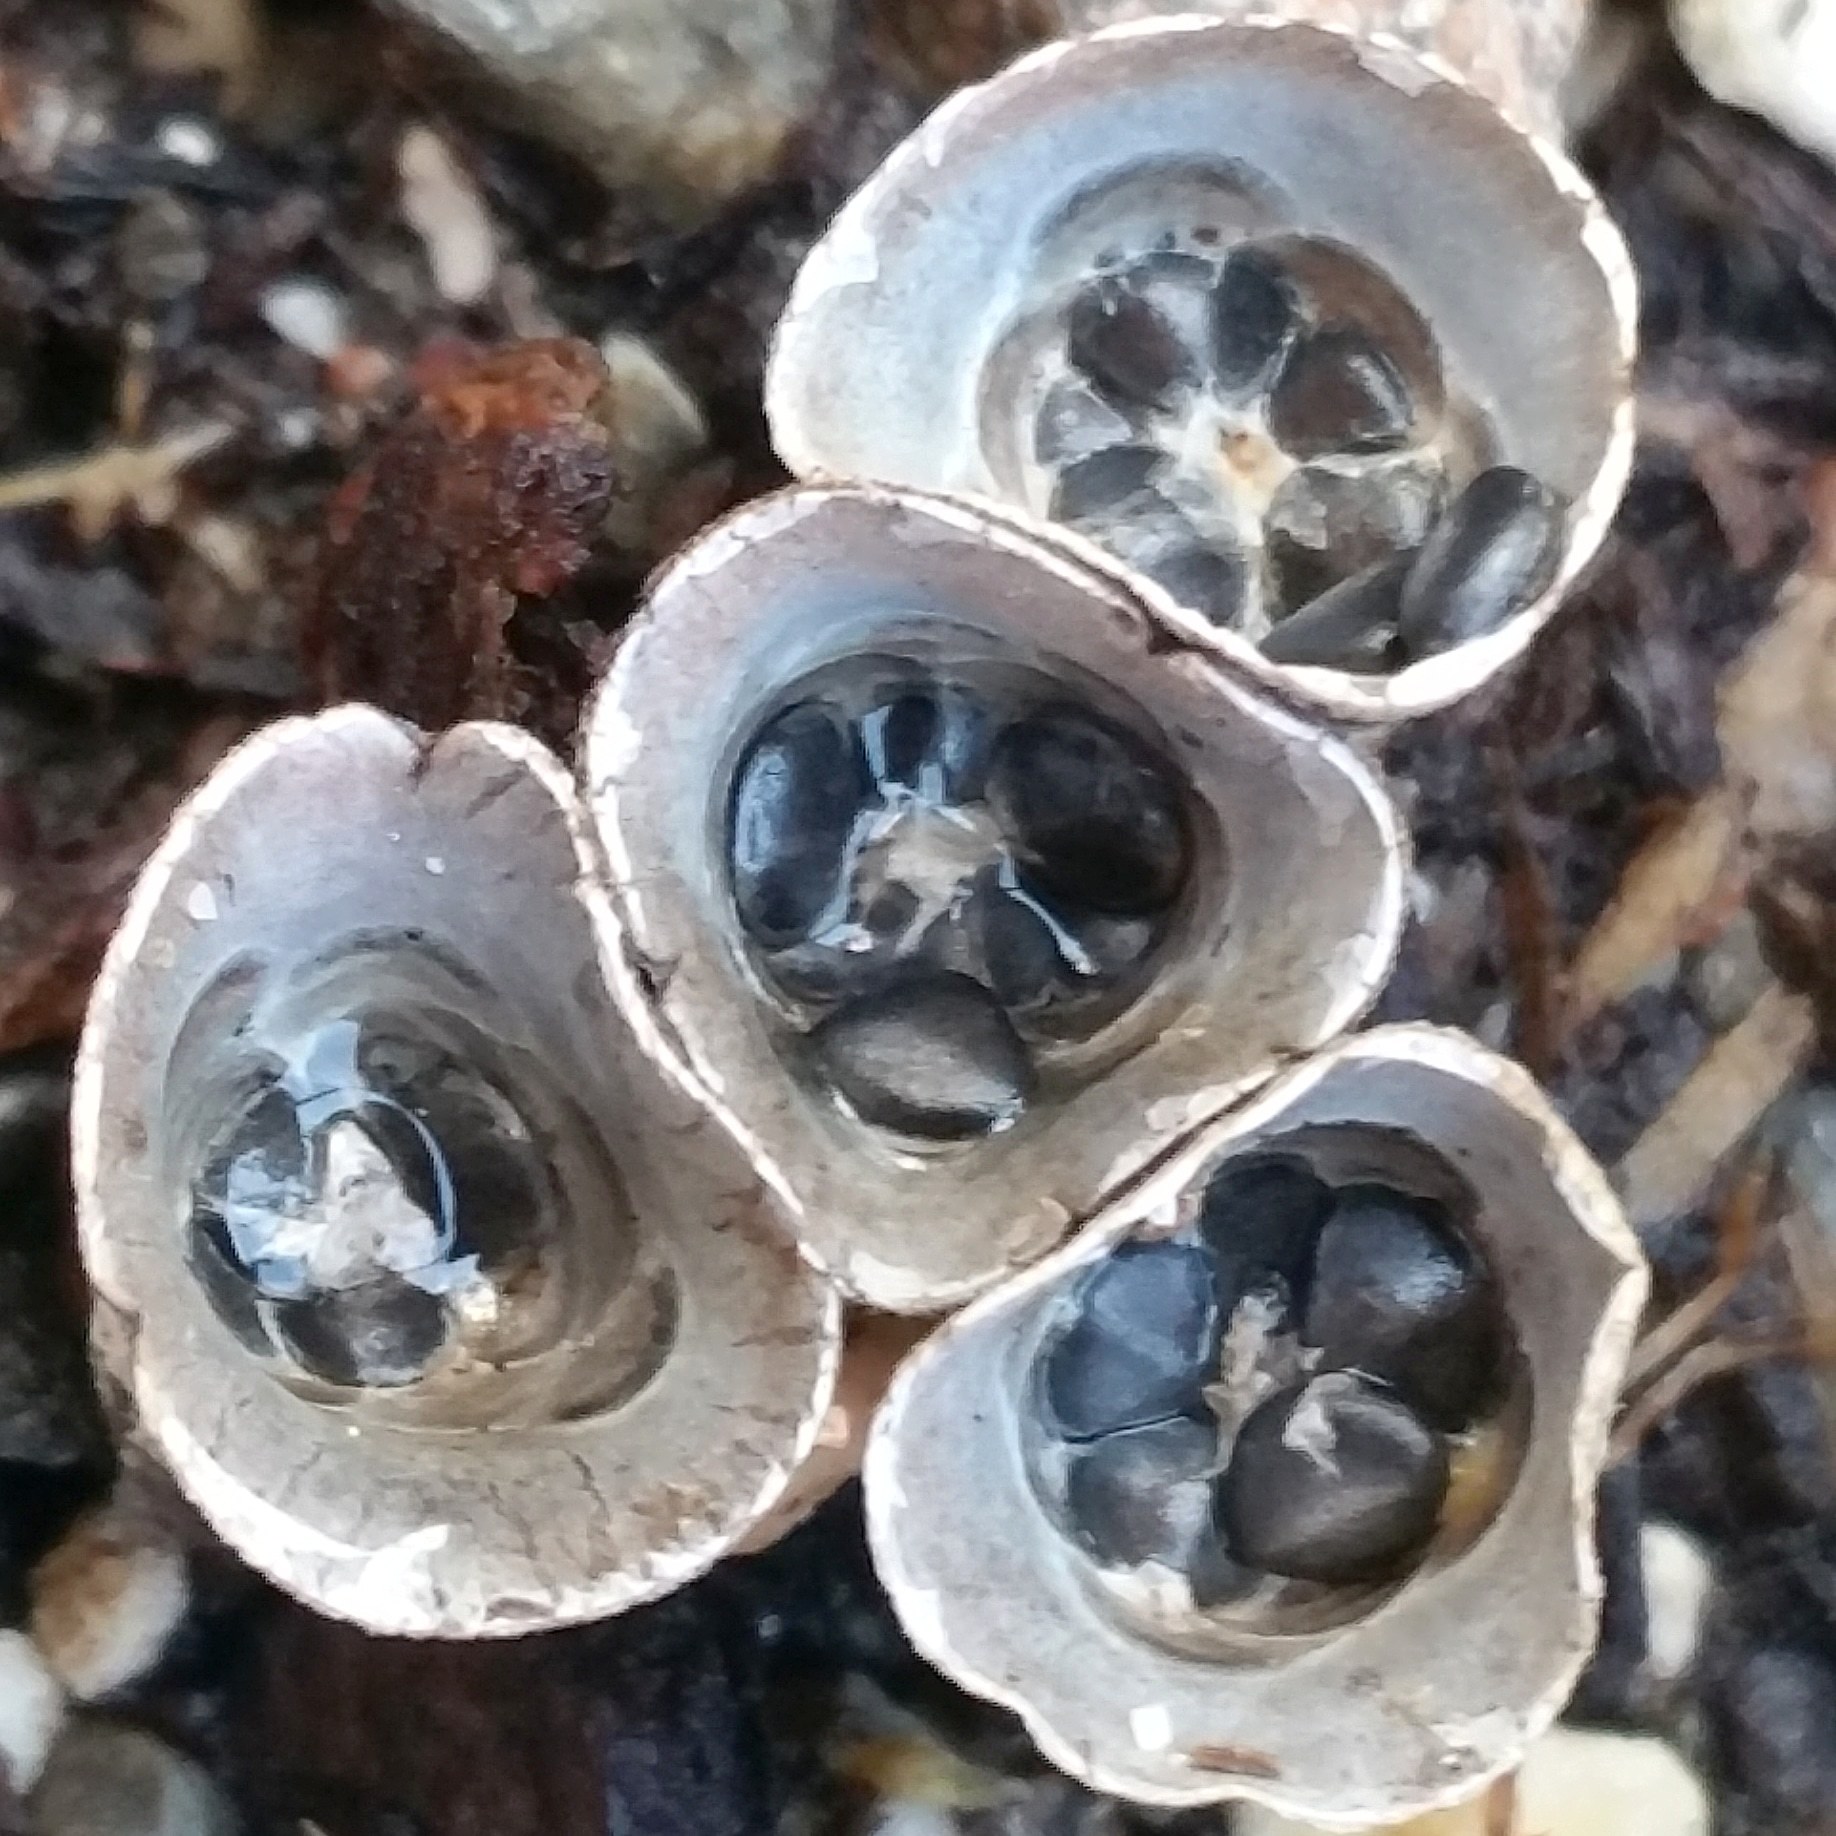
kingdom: Fungi
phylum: Basidiomycota
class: Agaricomycetes
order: Agaricales
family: Agaricaceae
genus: Cyathus
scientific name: Cyathus stercoreus
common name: Dung bird's nest
